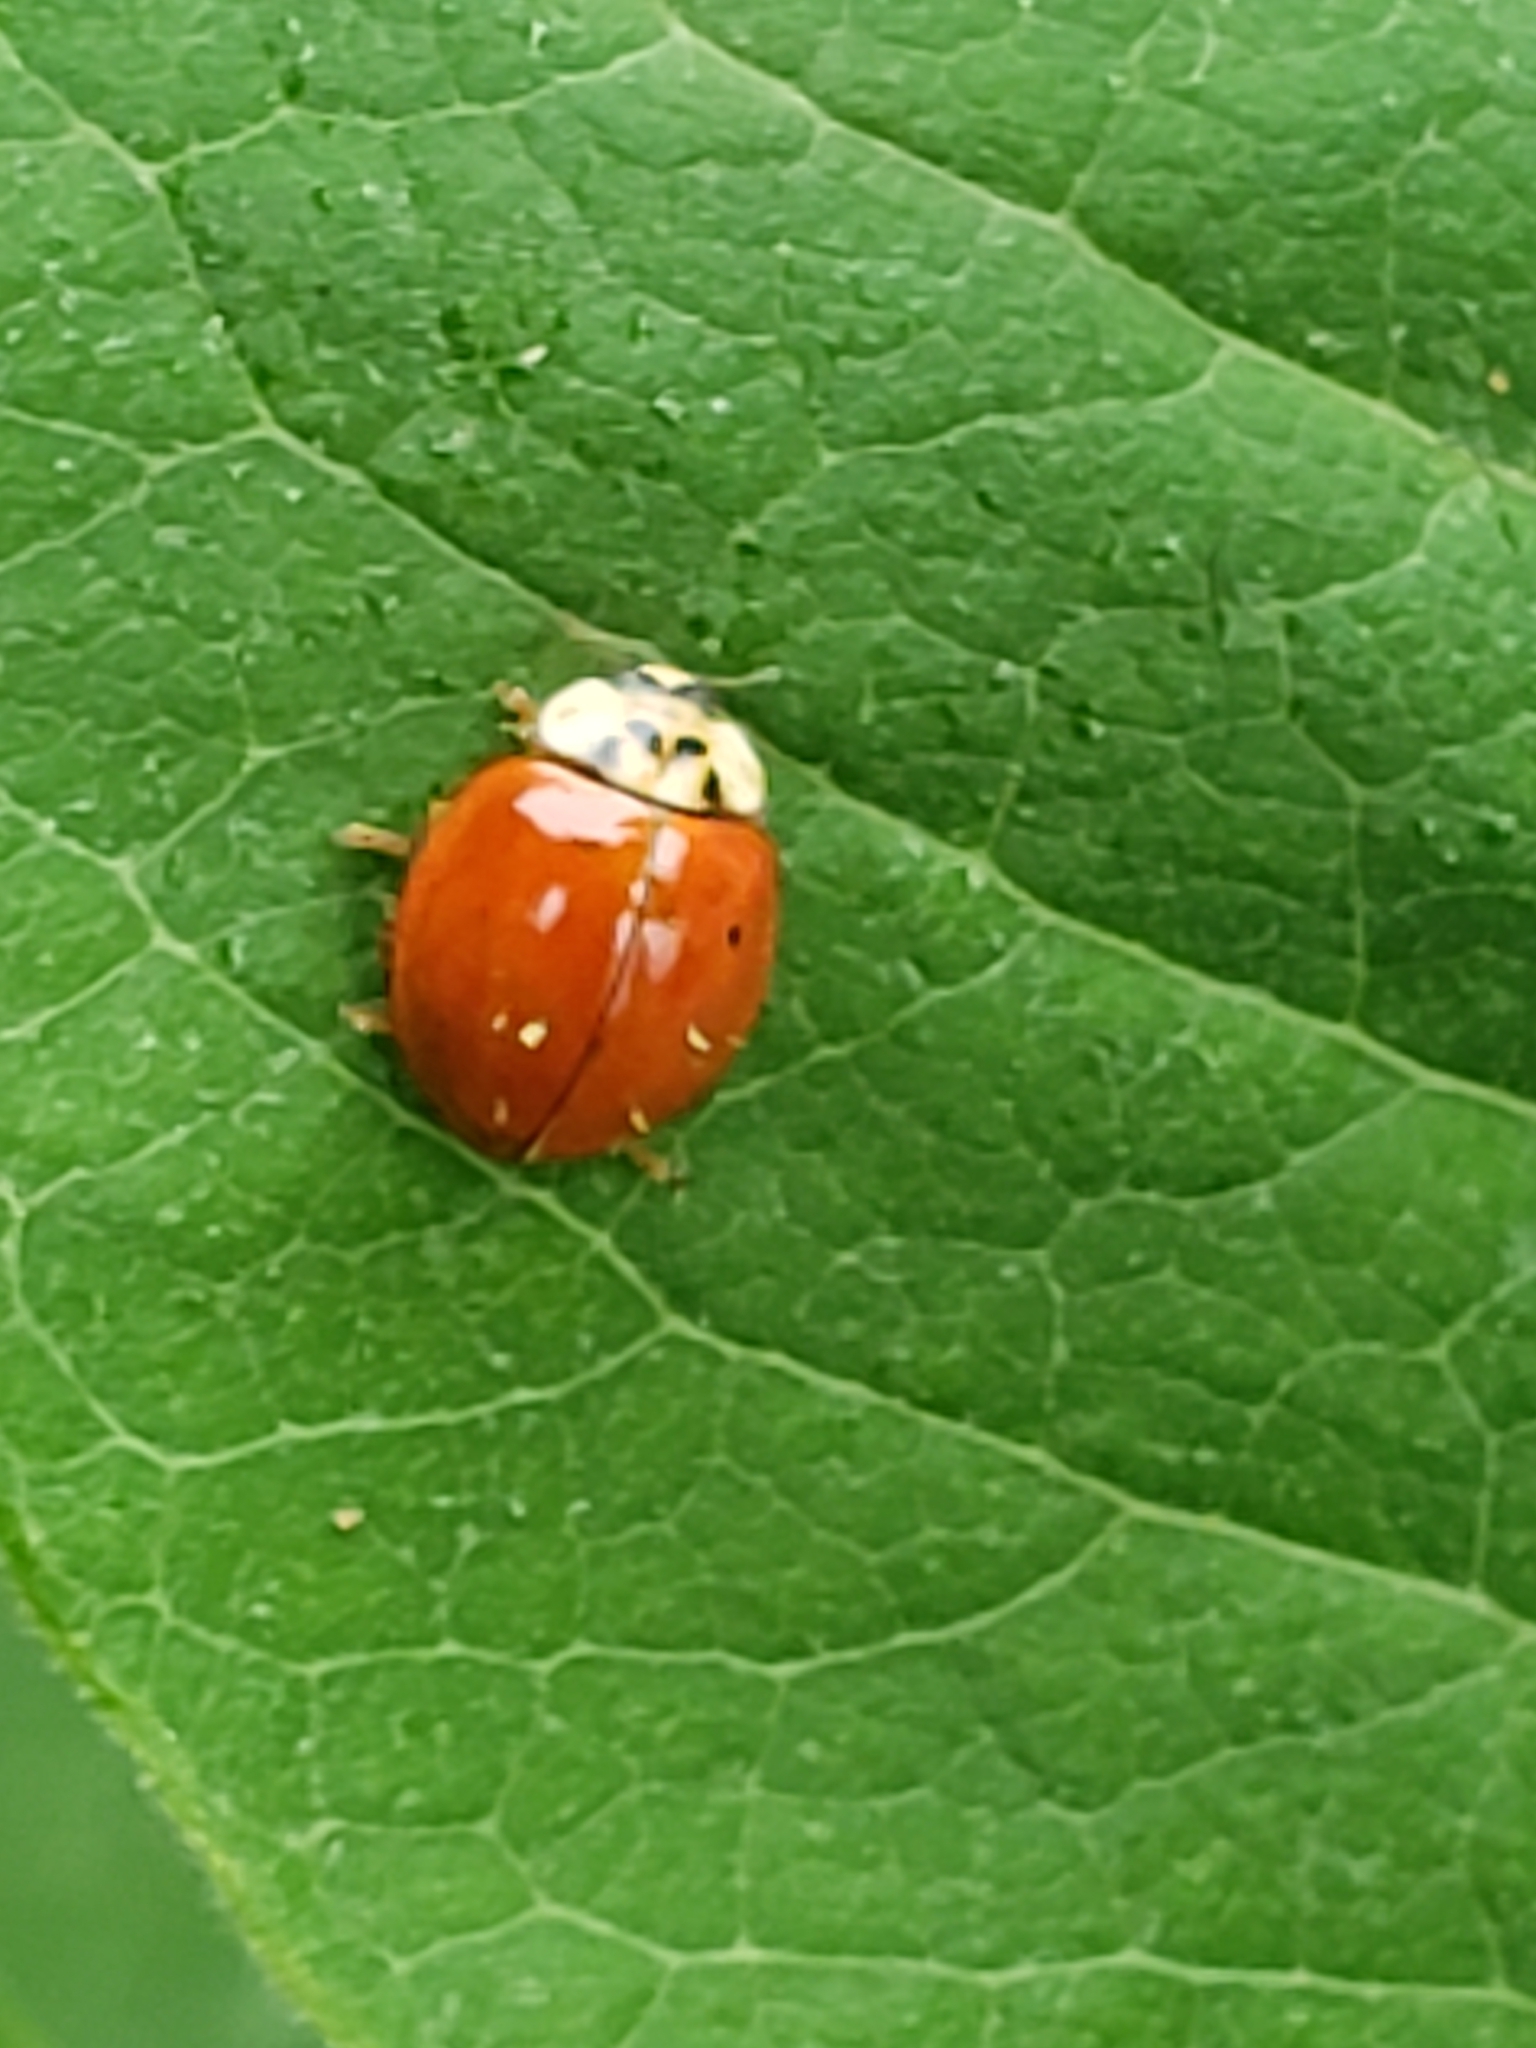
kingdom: Fungi
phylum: Ascomycota
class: Laboulbeniomycetes
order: Laboulbeniales
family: Laboulbeniaceae
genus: Hesperomyces
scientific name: Hesperomyces harmoniae
